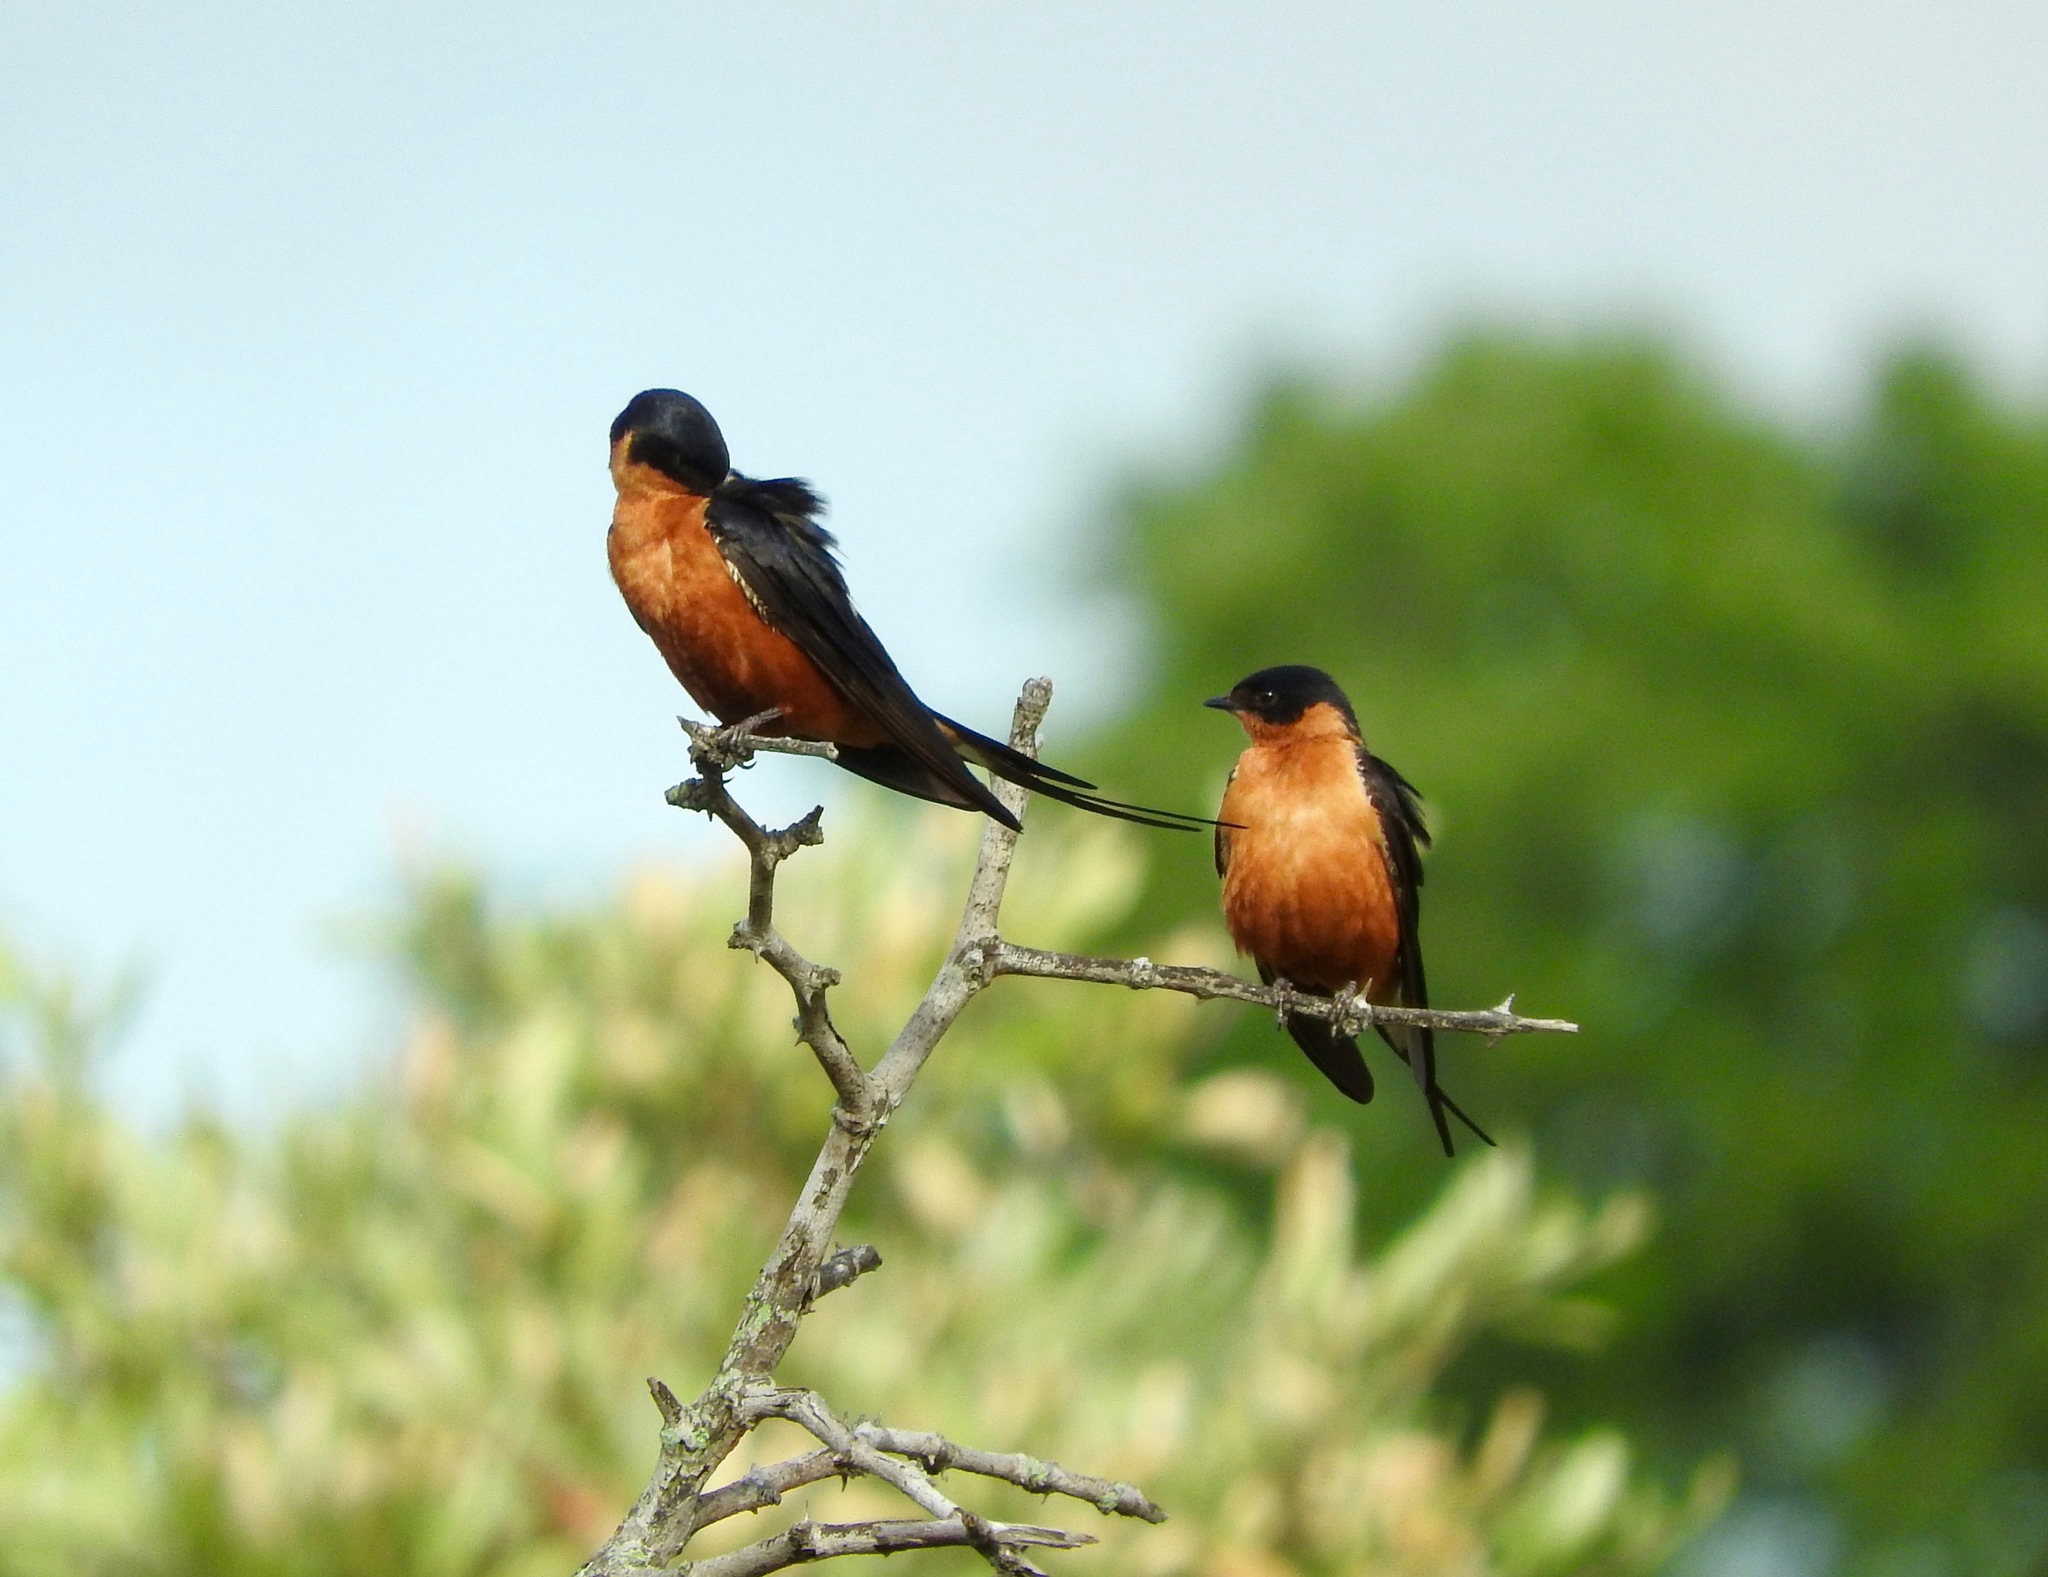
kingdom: Animalia
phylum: Chordata
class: Aves
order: Passeriformes
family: Hirundinidae
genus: Cecropis
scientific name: Cecropis semirufa
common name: Red-breasted swallow
